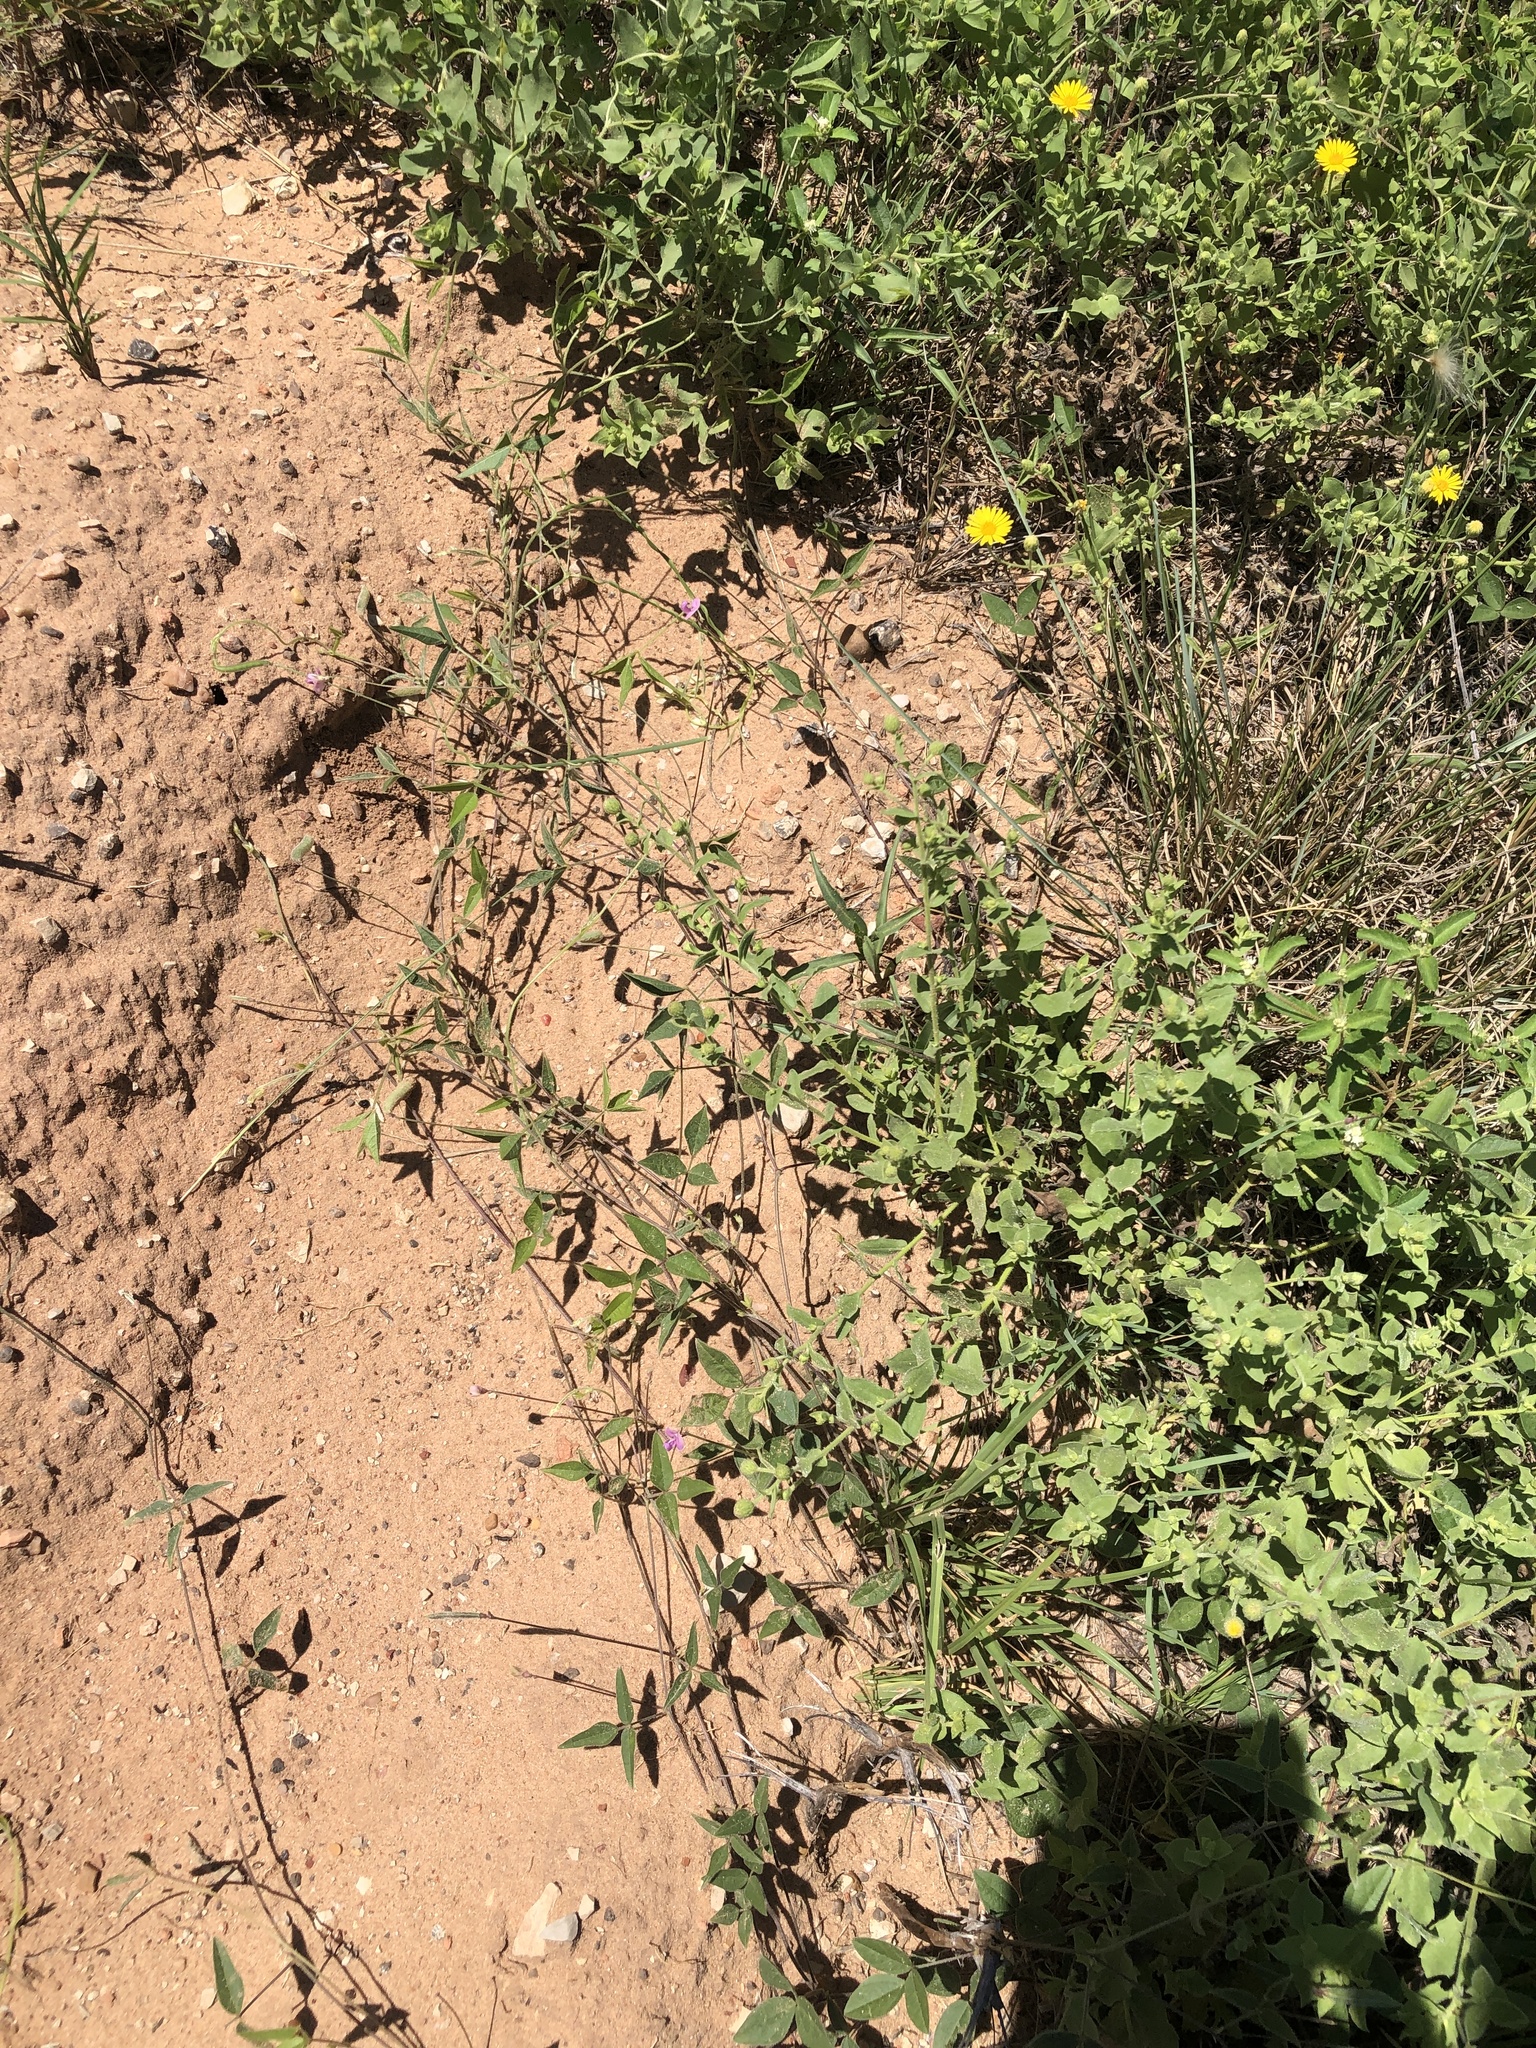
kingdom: Plantae
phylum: Tracheophyta
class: Magnoliopsida
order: Fabales
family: Fabaceae
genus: Strophostyles
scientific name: Strophostyles leiosperma
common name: Smooth-seed wild bean
